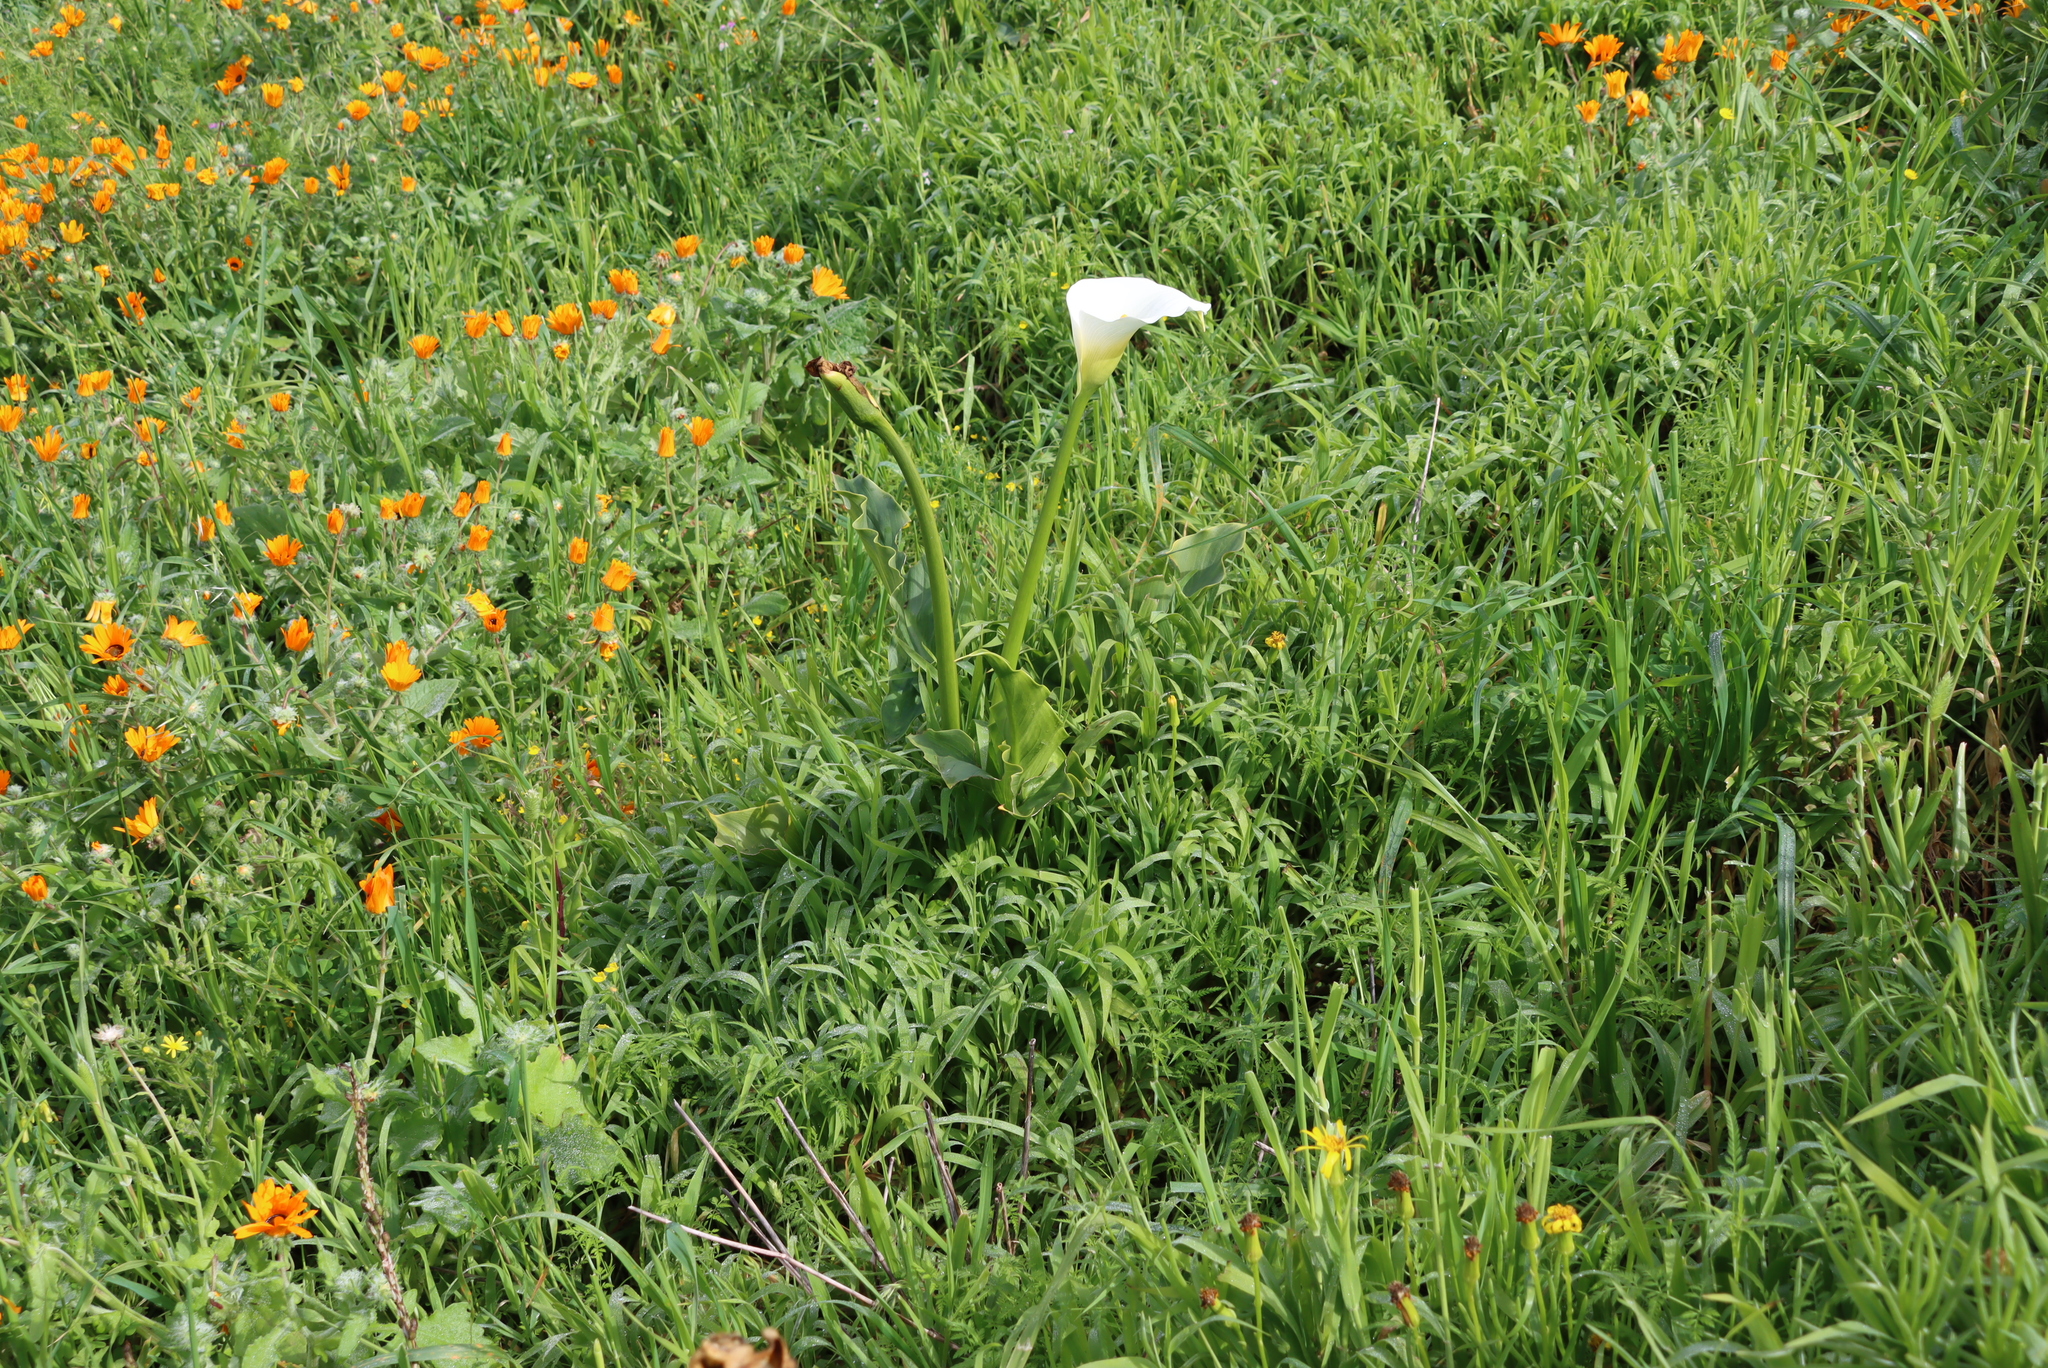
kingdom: Plantae
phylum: Tracheophyta
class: Liliopsida
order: Alismatales
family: Araceae
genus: Zantedeschia
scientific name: Zantedeschia aethiopica
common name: Altar-lily
